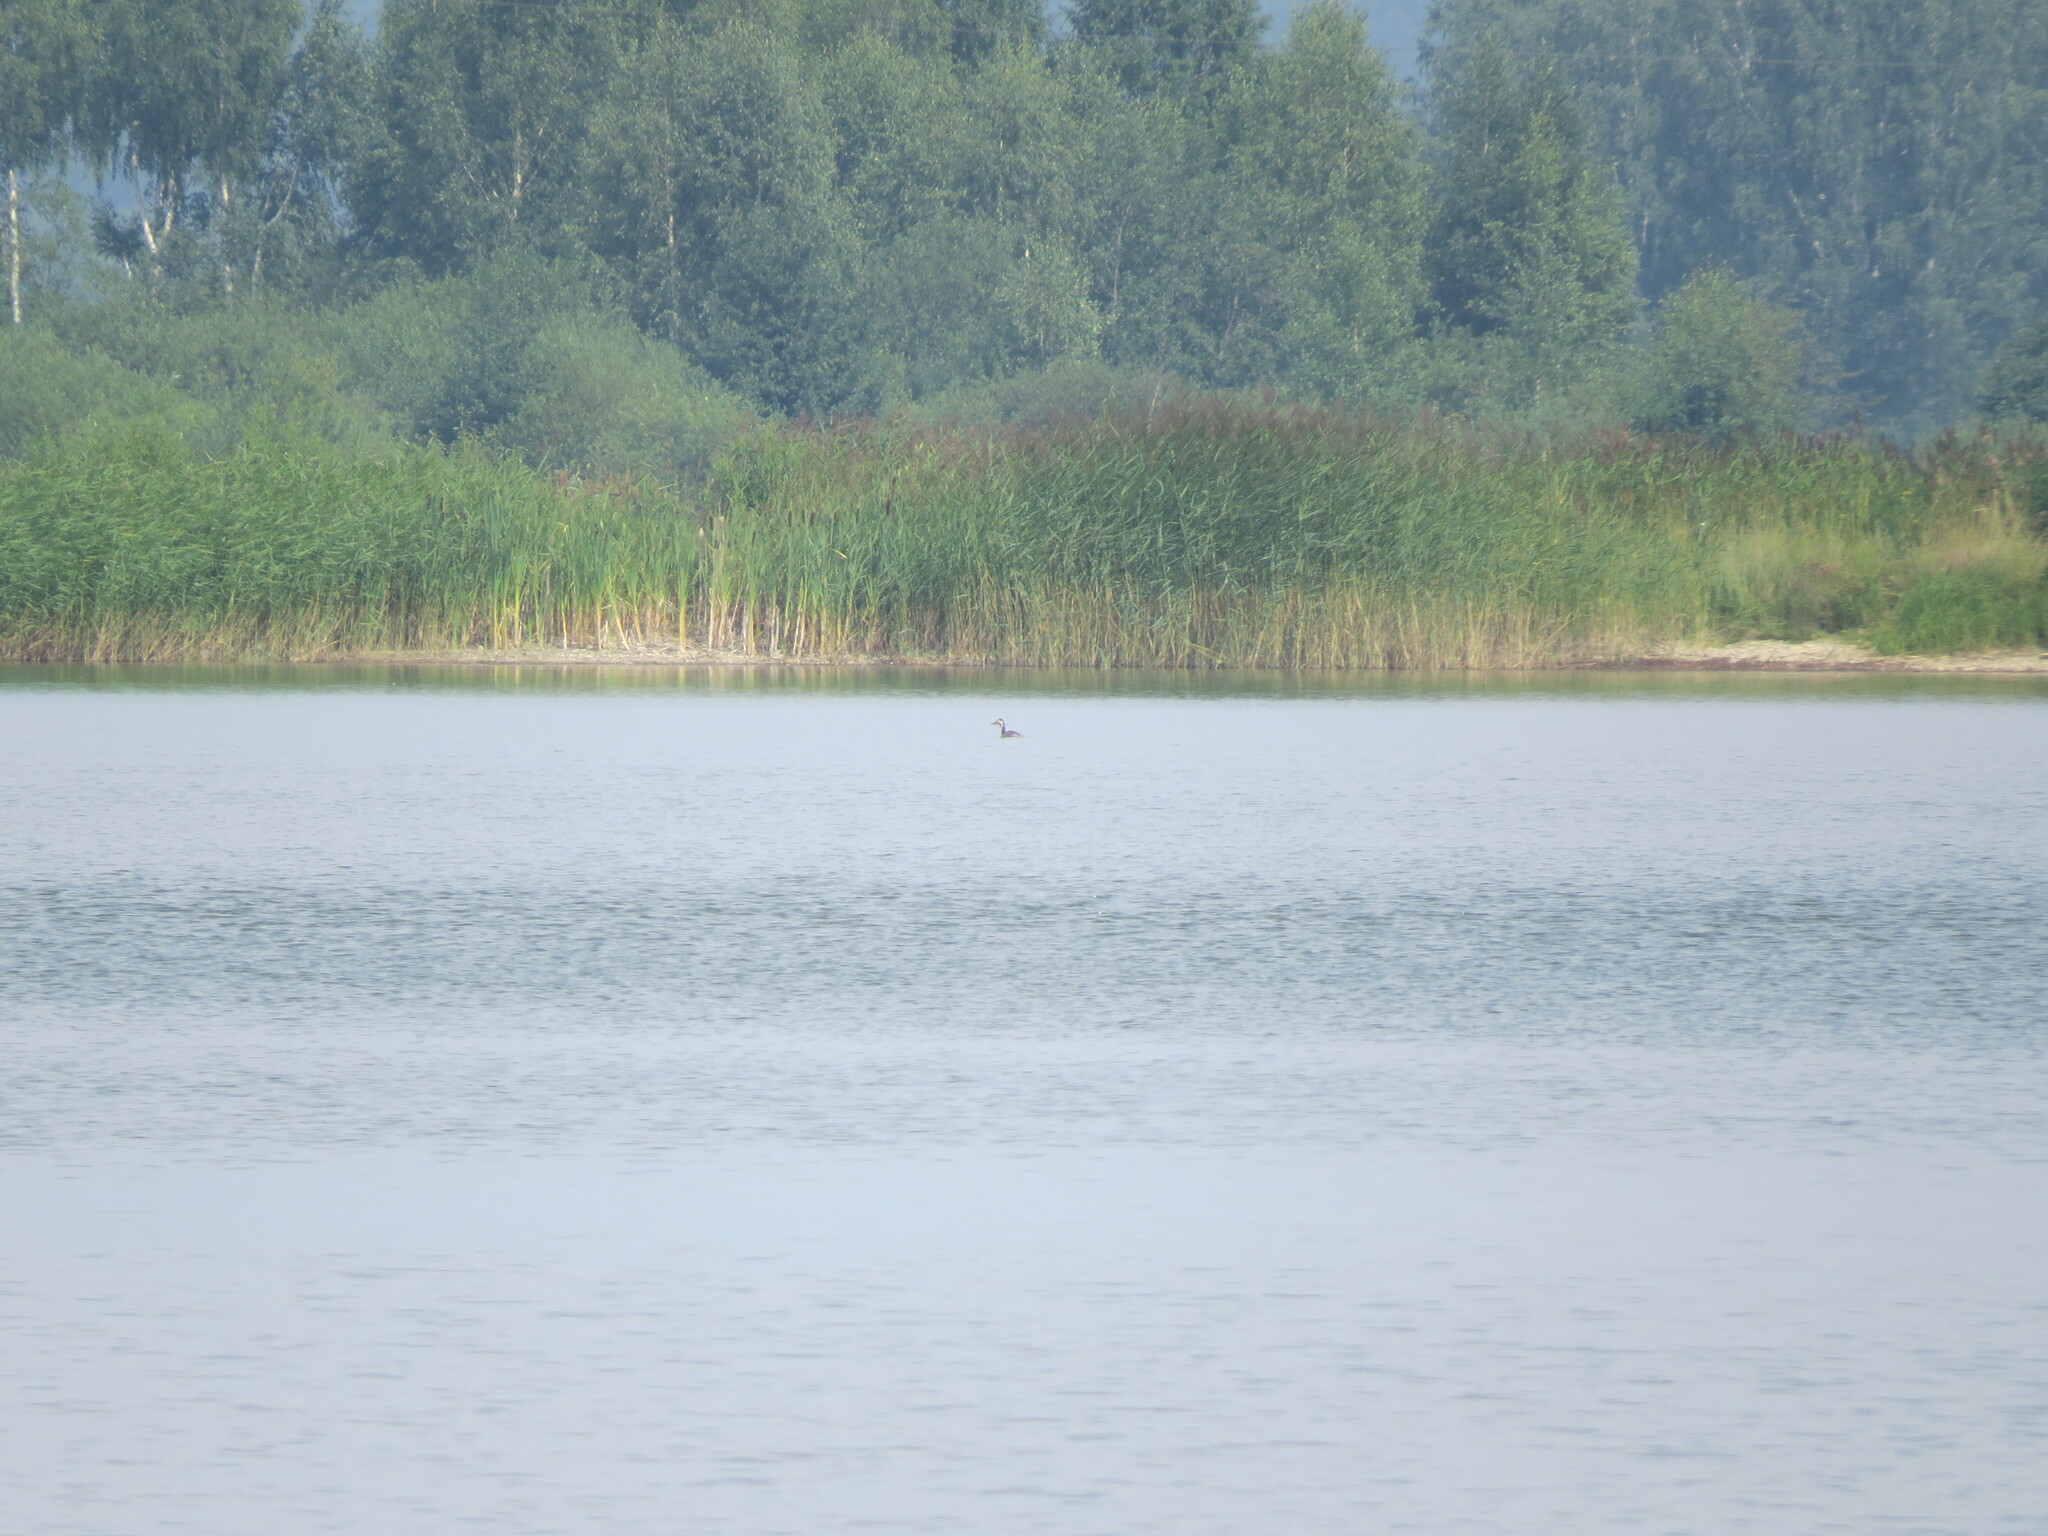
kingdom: Animalia
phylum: Chordata
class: Aves
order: Podicipediformes
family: Podicipedidae
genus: Podiceps
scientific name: Podiceps cristatus
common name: Great crested grebe
